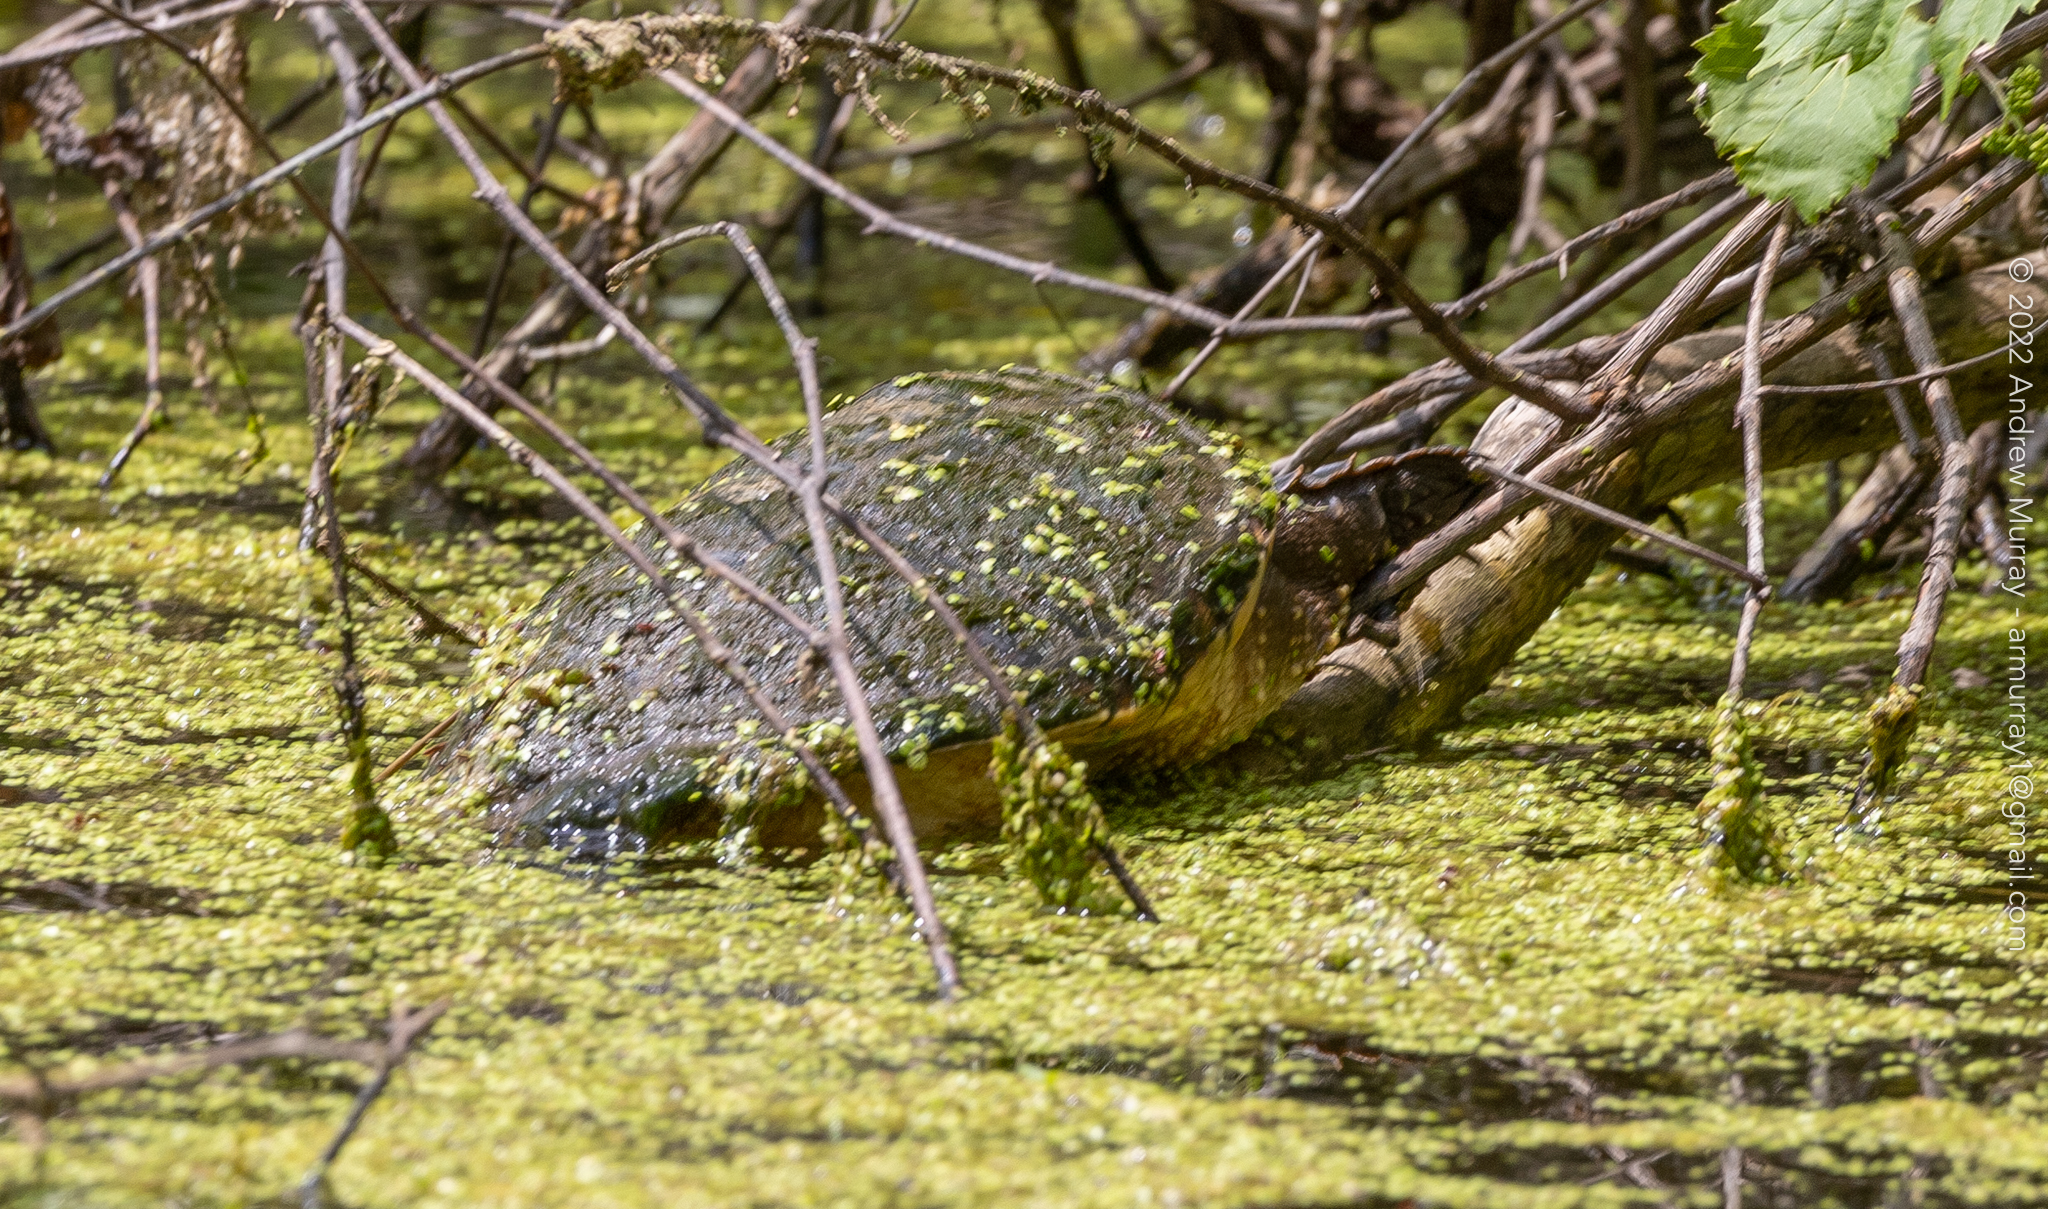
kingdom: Animalia
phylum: Chordata
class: Testudines
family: Chelydridae
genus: Chelydra
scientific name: Chelydra serpentina
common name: Common snapping turtle
